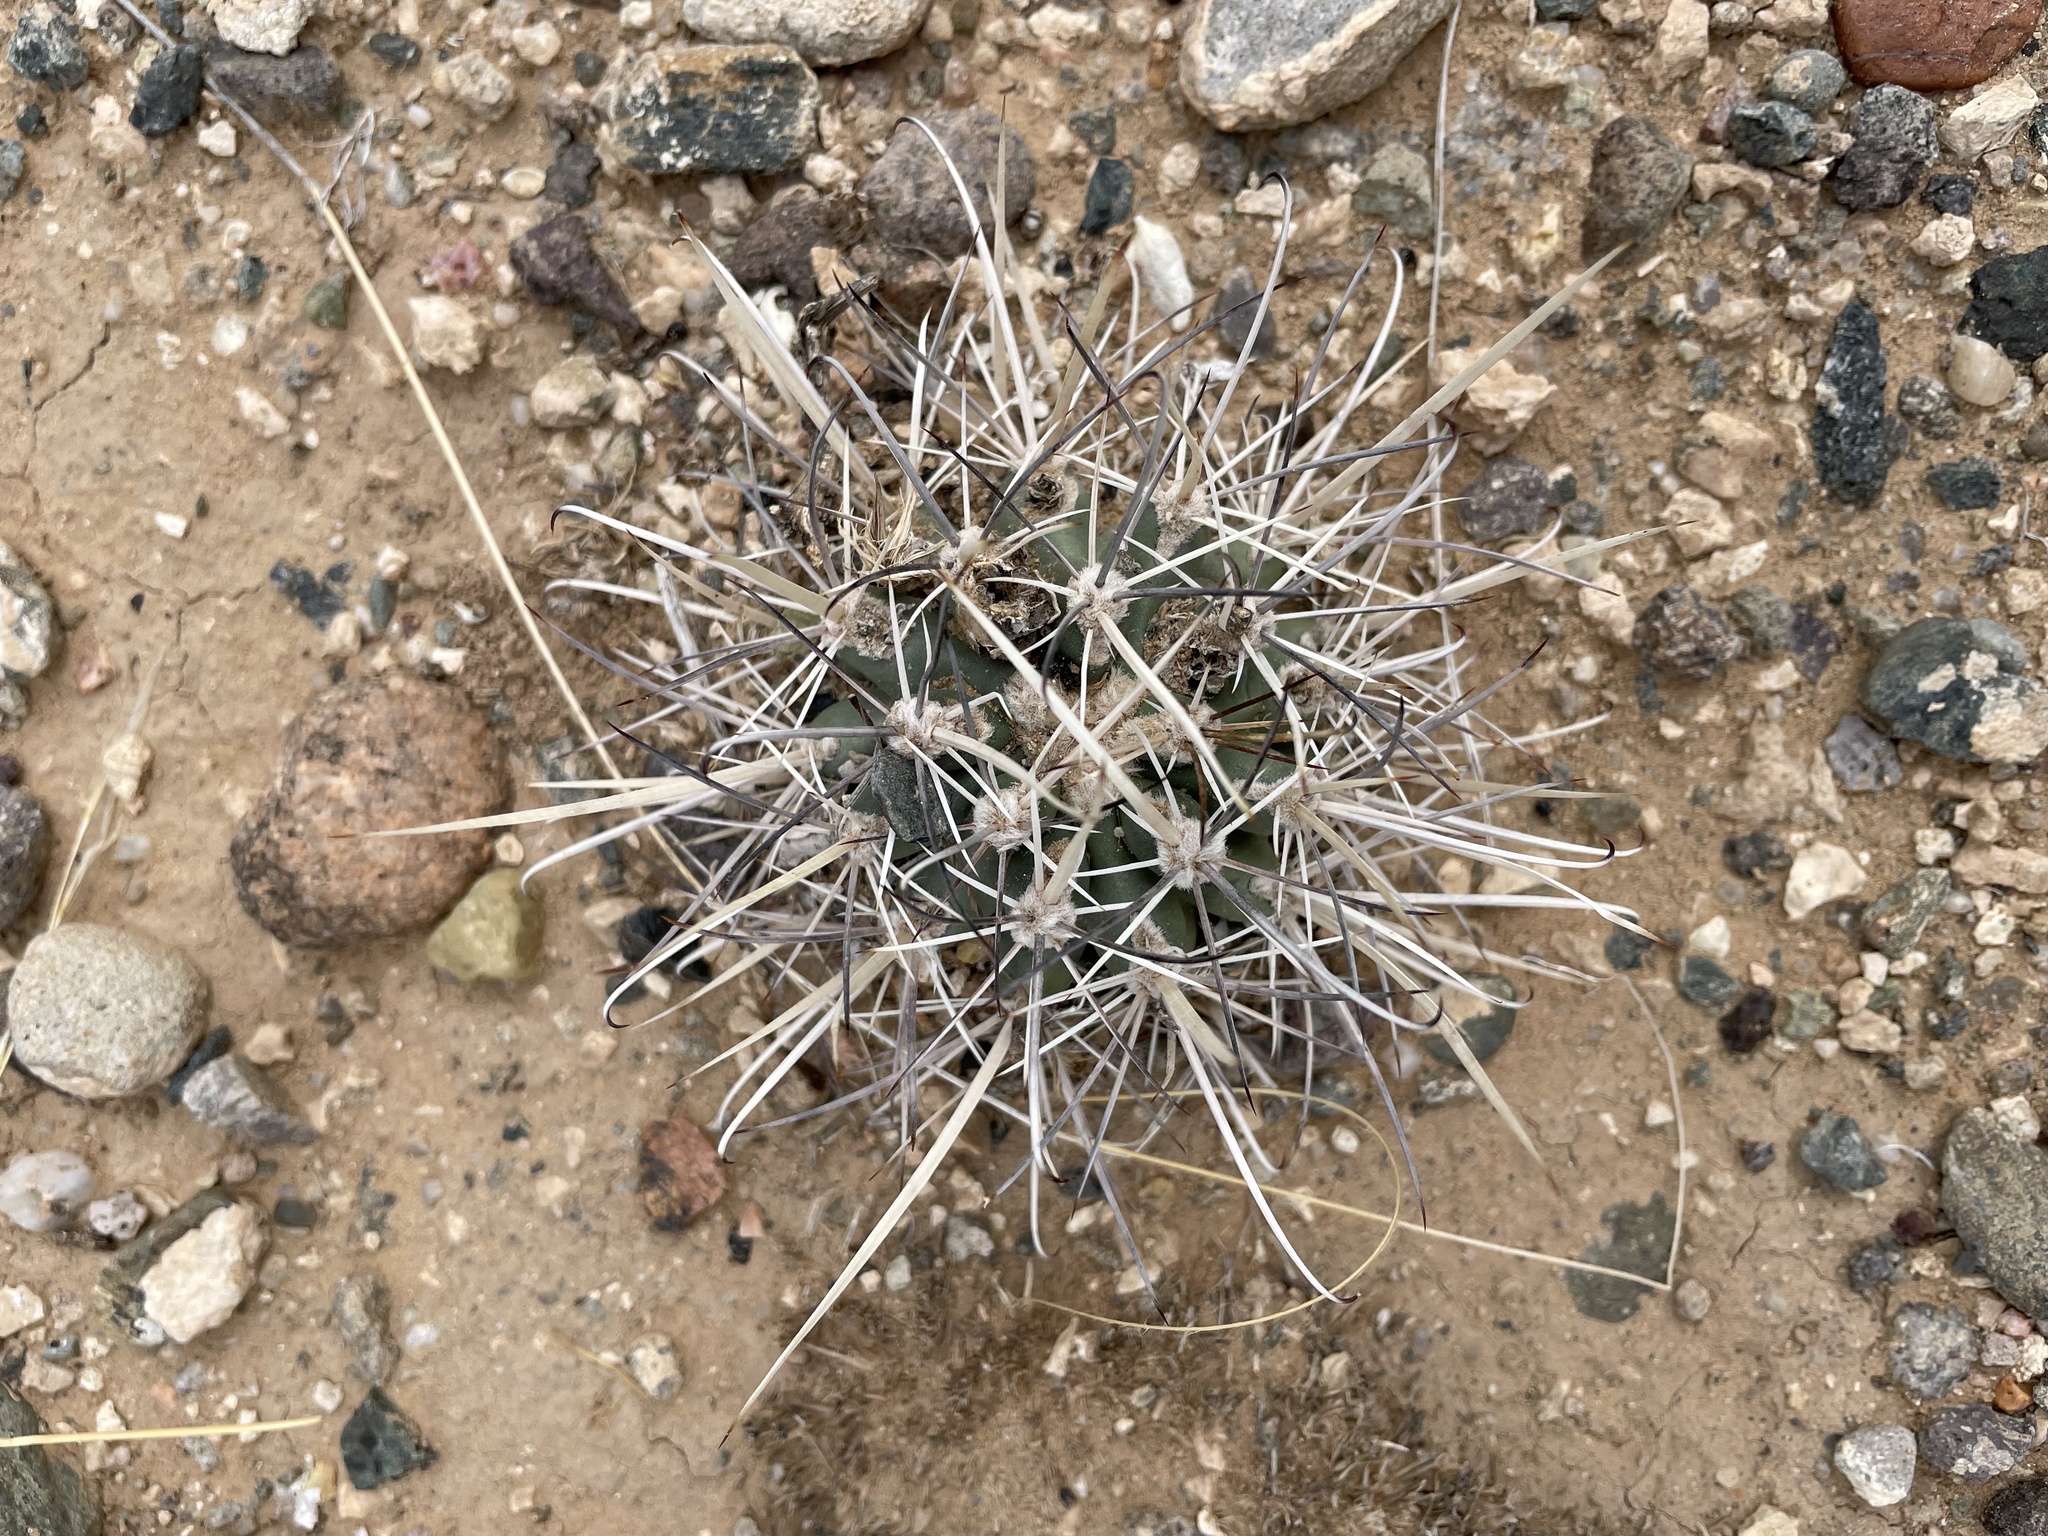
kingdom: Plantae
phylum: Tracheophyta
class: Magnoliopsida
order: Caryophyllales
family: Cactaceae
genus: Sclerocactus
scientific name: Sclerocactus cloverae
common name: Clover's eagle-claw cactus
